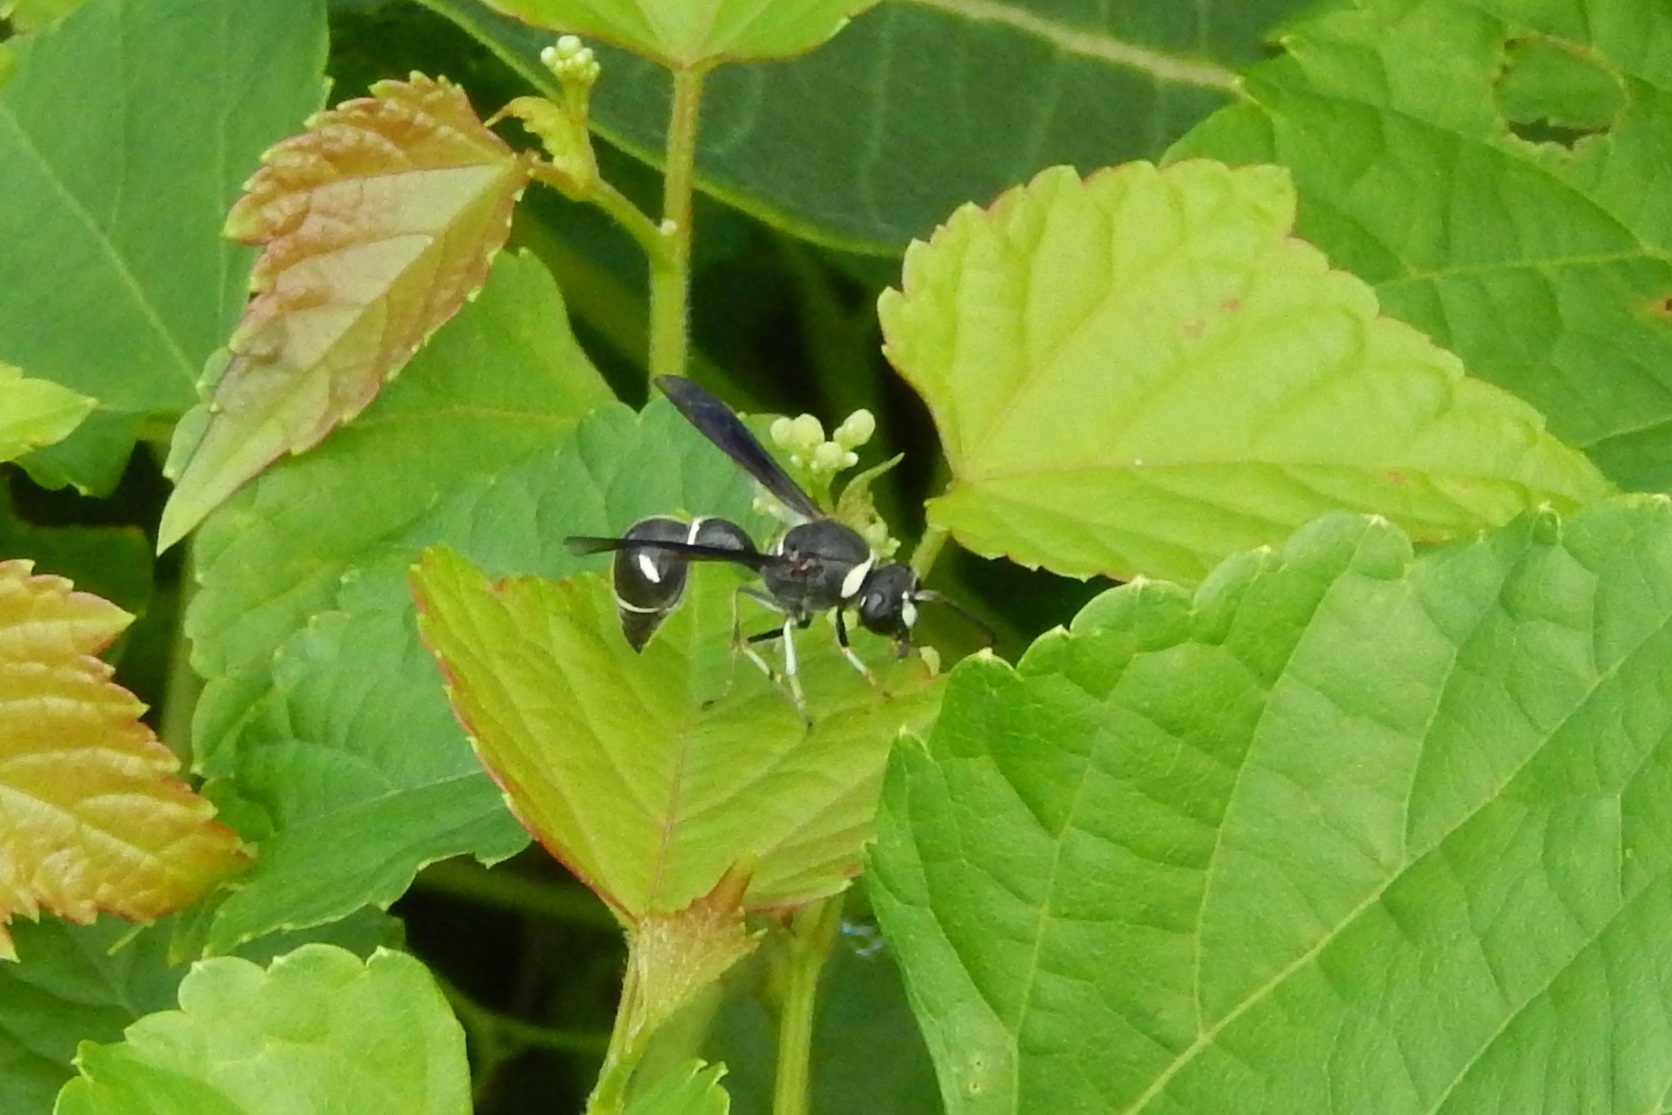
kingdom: Animalia
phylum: Arthropoda
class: Insecta
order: Hymenoptera
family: Vespidae
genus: Eumenes
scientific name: Eumenes fraternus
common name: Fraternal potter wasp
